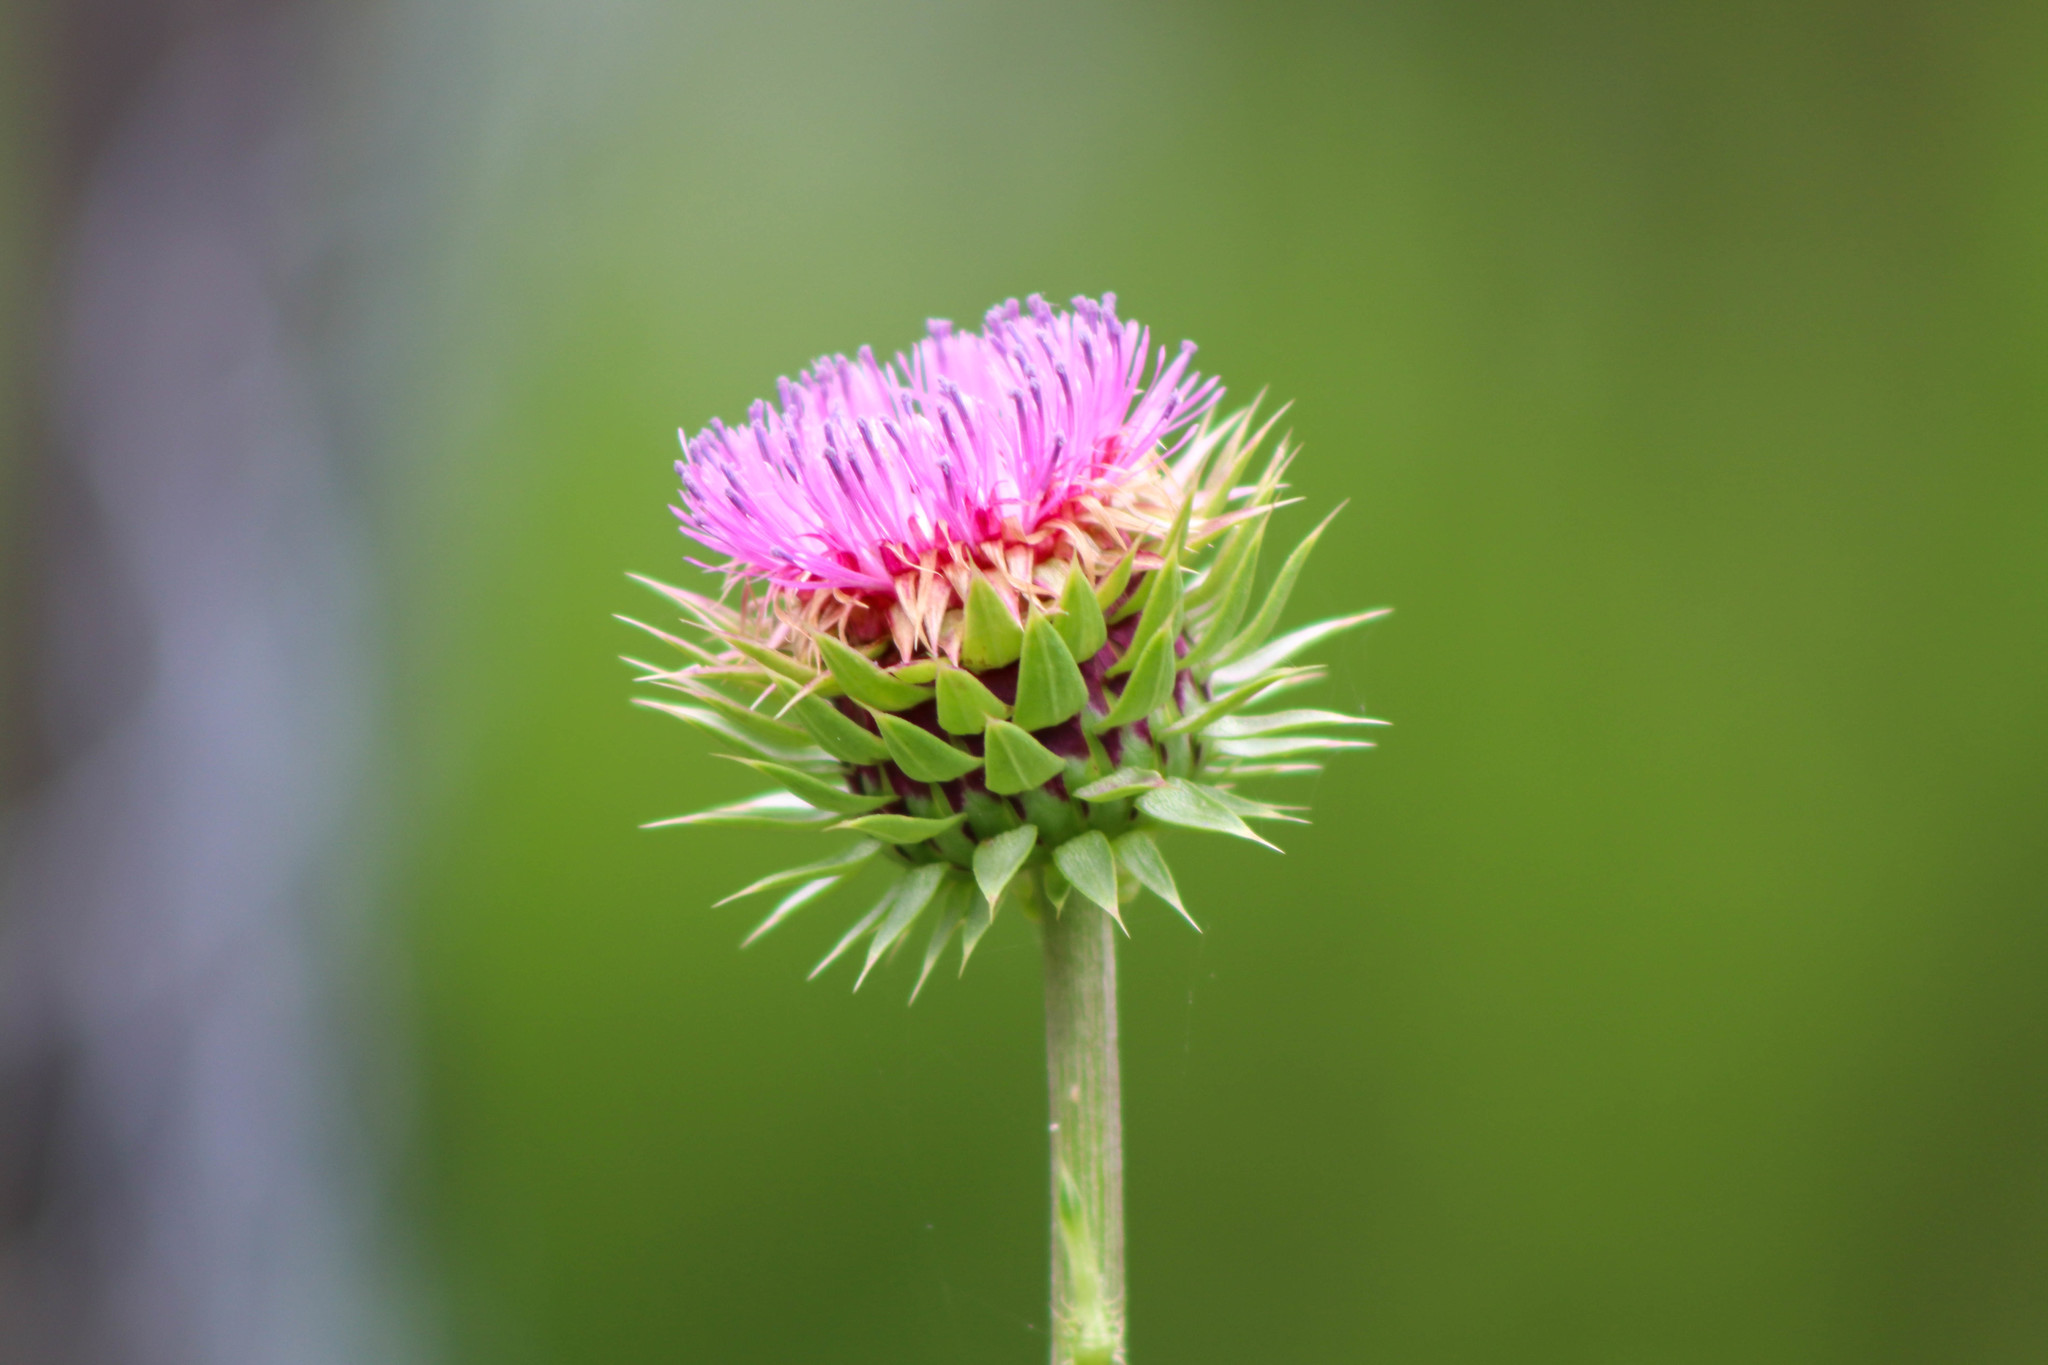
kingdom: Plantae
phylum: Tracheophyta
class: Magnoliopsida
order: Asterales
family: Asteraceae
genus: Carduus
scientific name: Carduus nutans
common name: Musk thistle
